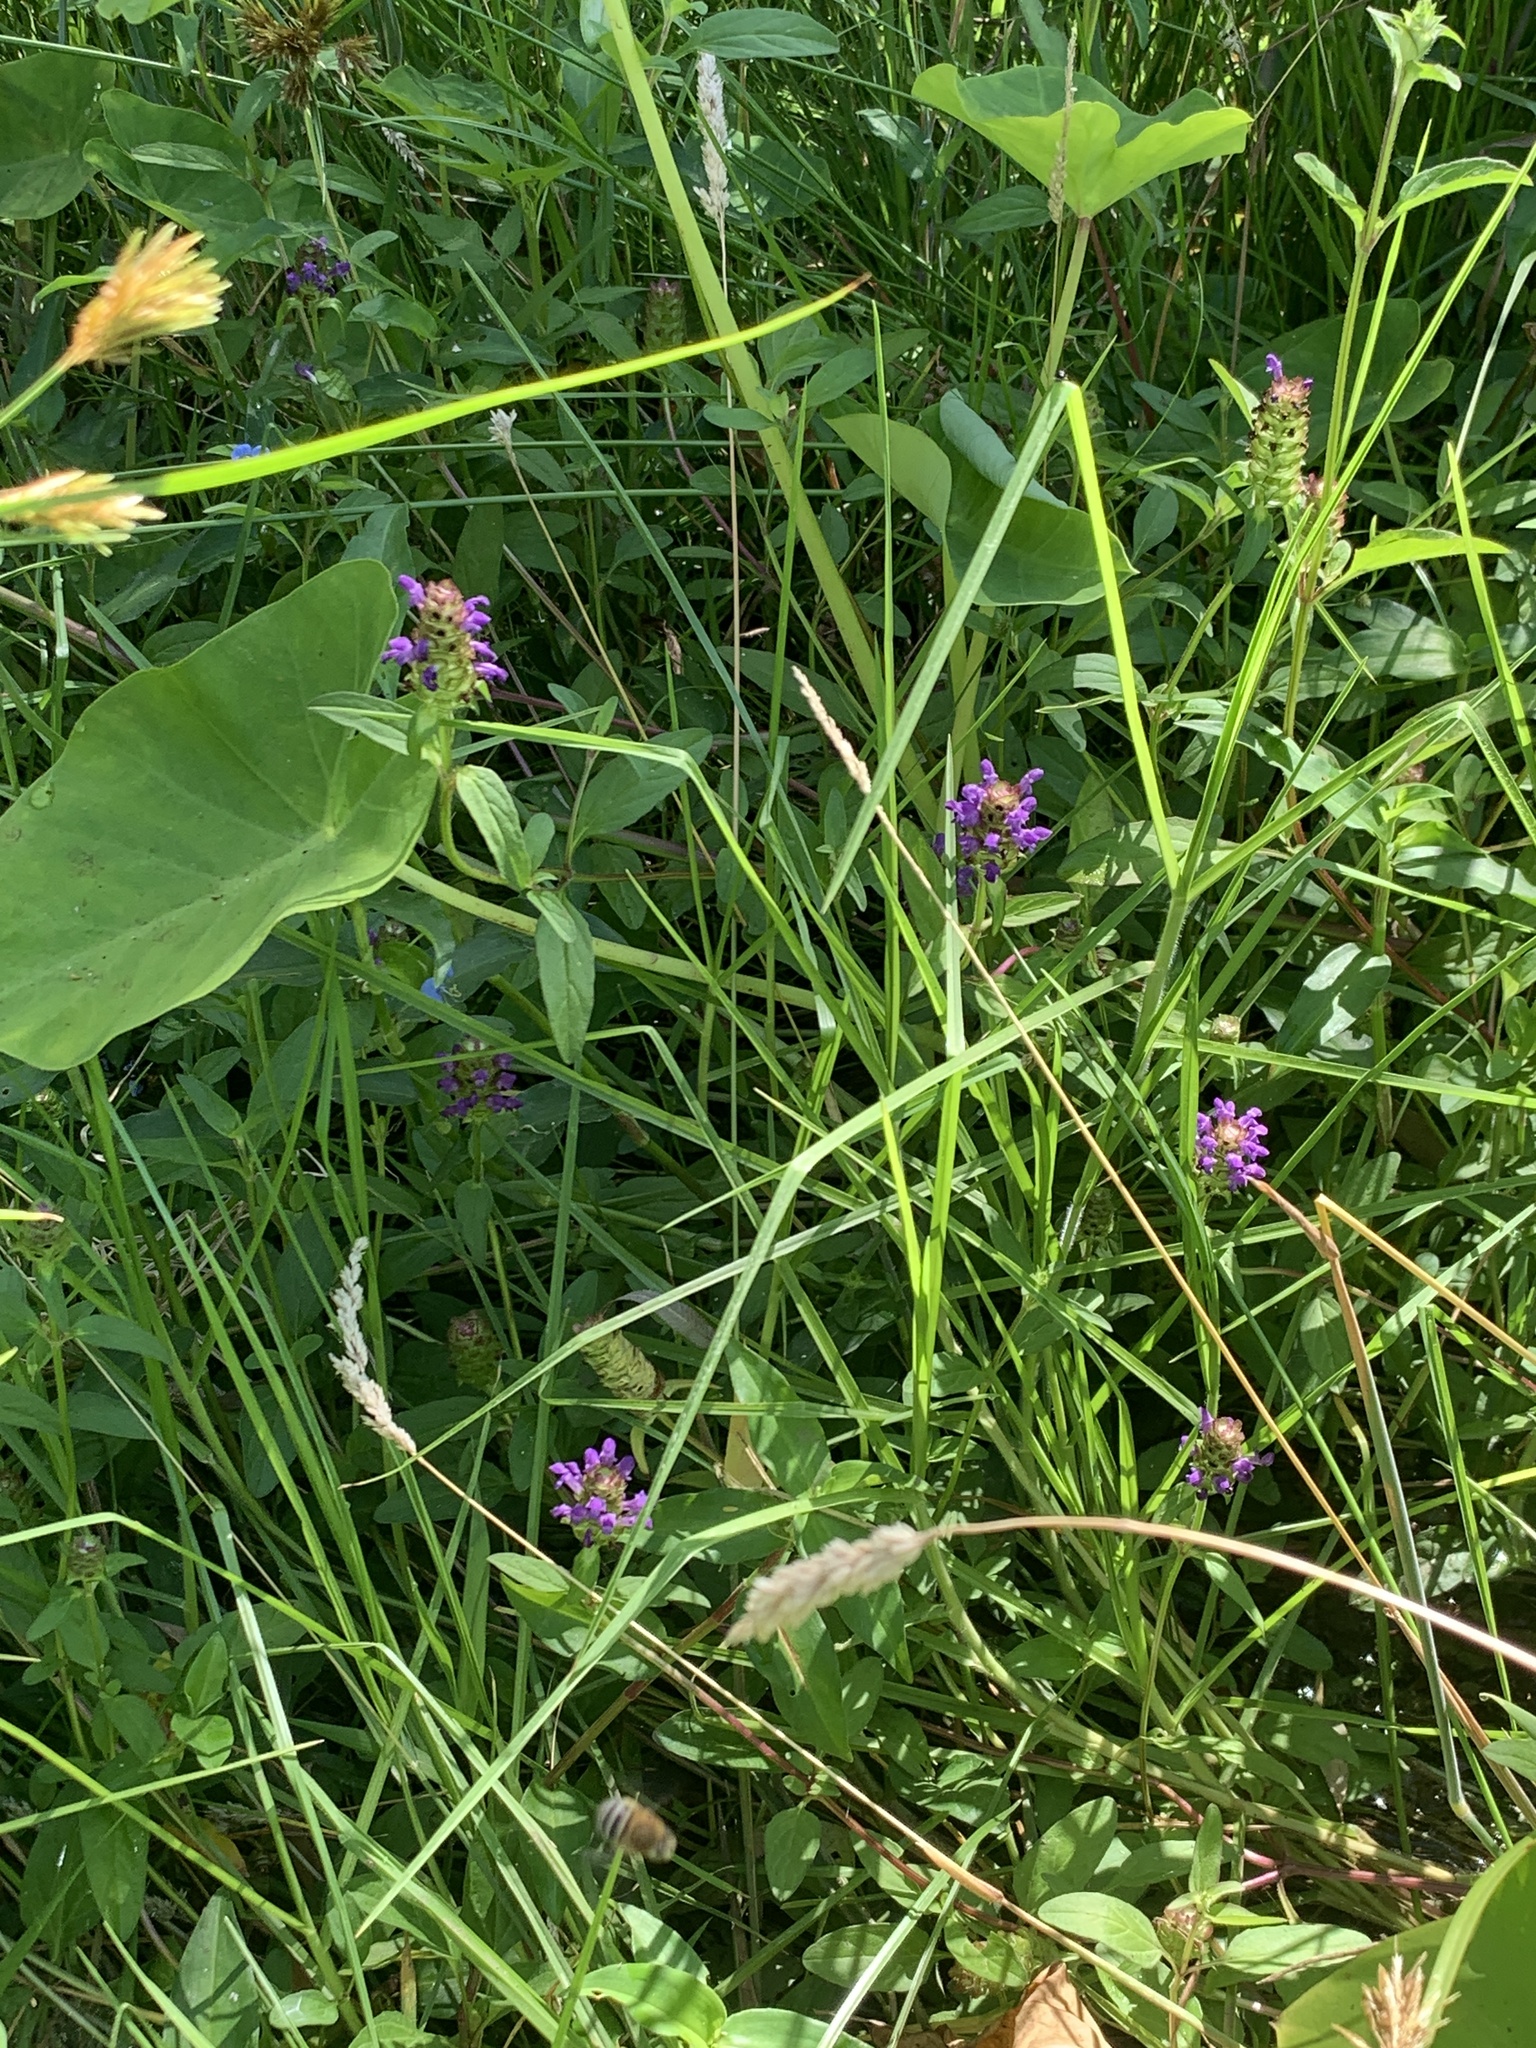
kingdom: Plantae
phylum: Tracheophyta
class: Magnoliopsida
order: Lamiales
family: Lamiaceae
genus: Prunella
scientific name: Prunella vulgaris
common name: Heal-all
